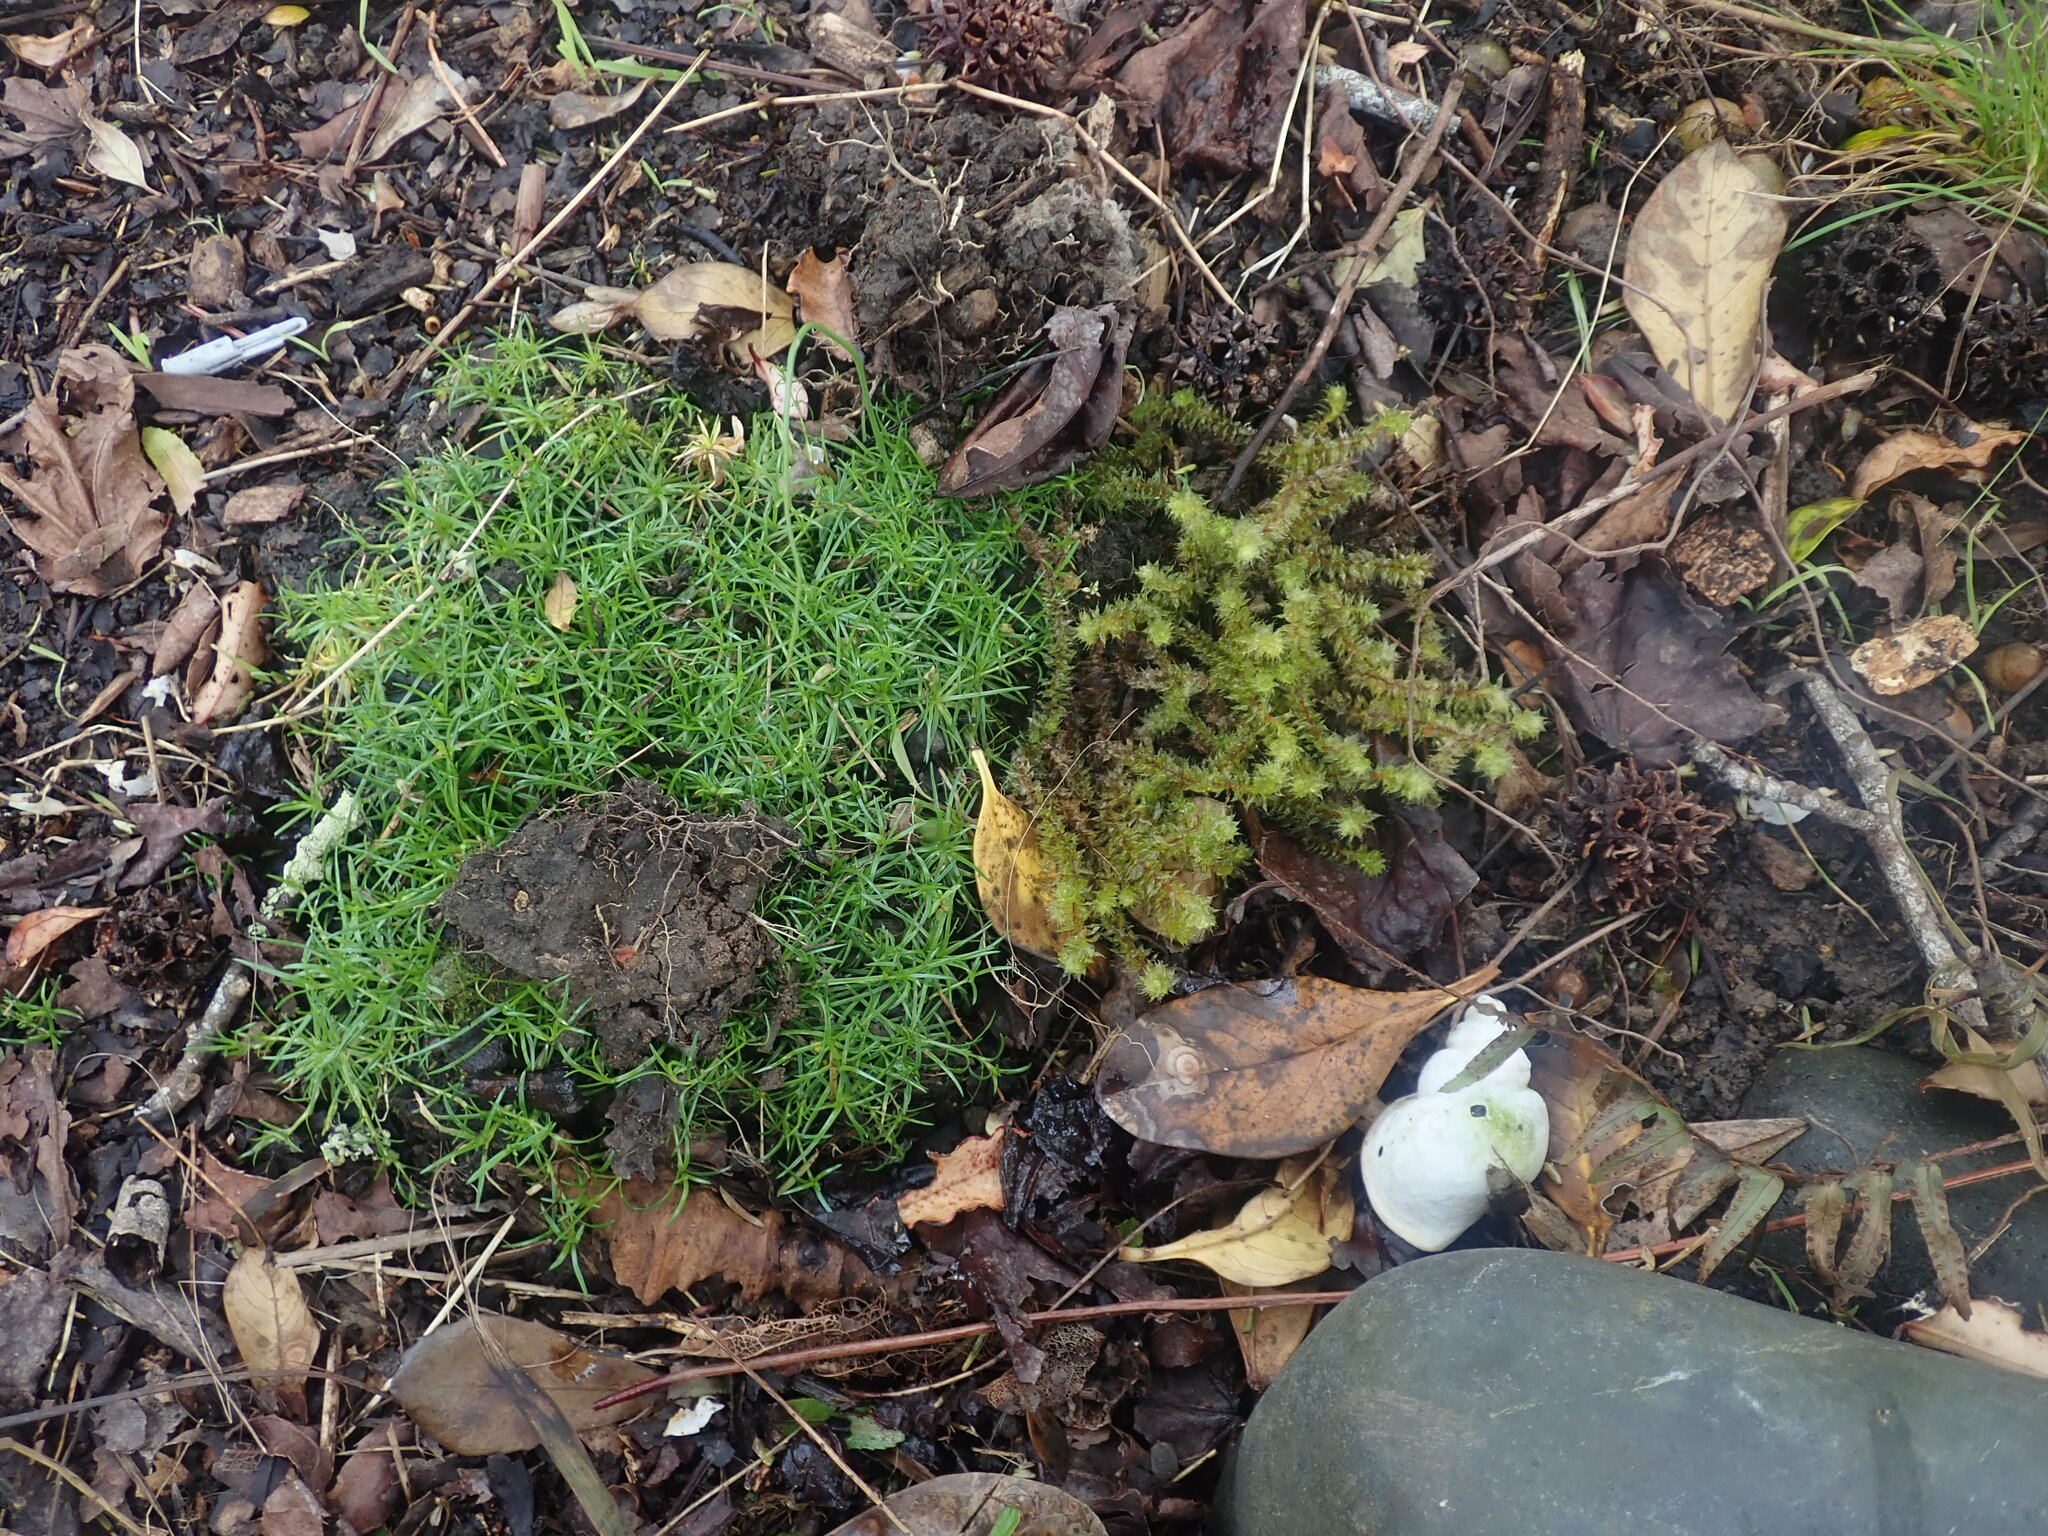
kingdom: Plantae
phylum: Tracheophyta
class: Magnoliopsida
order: Caryophyllales
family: Caryophyllaceae
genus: Sagina
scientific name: Sagina procumbens
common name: Procumbent pearlwort
